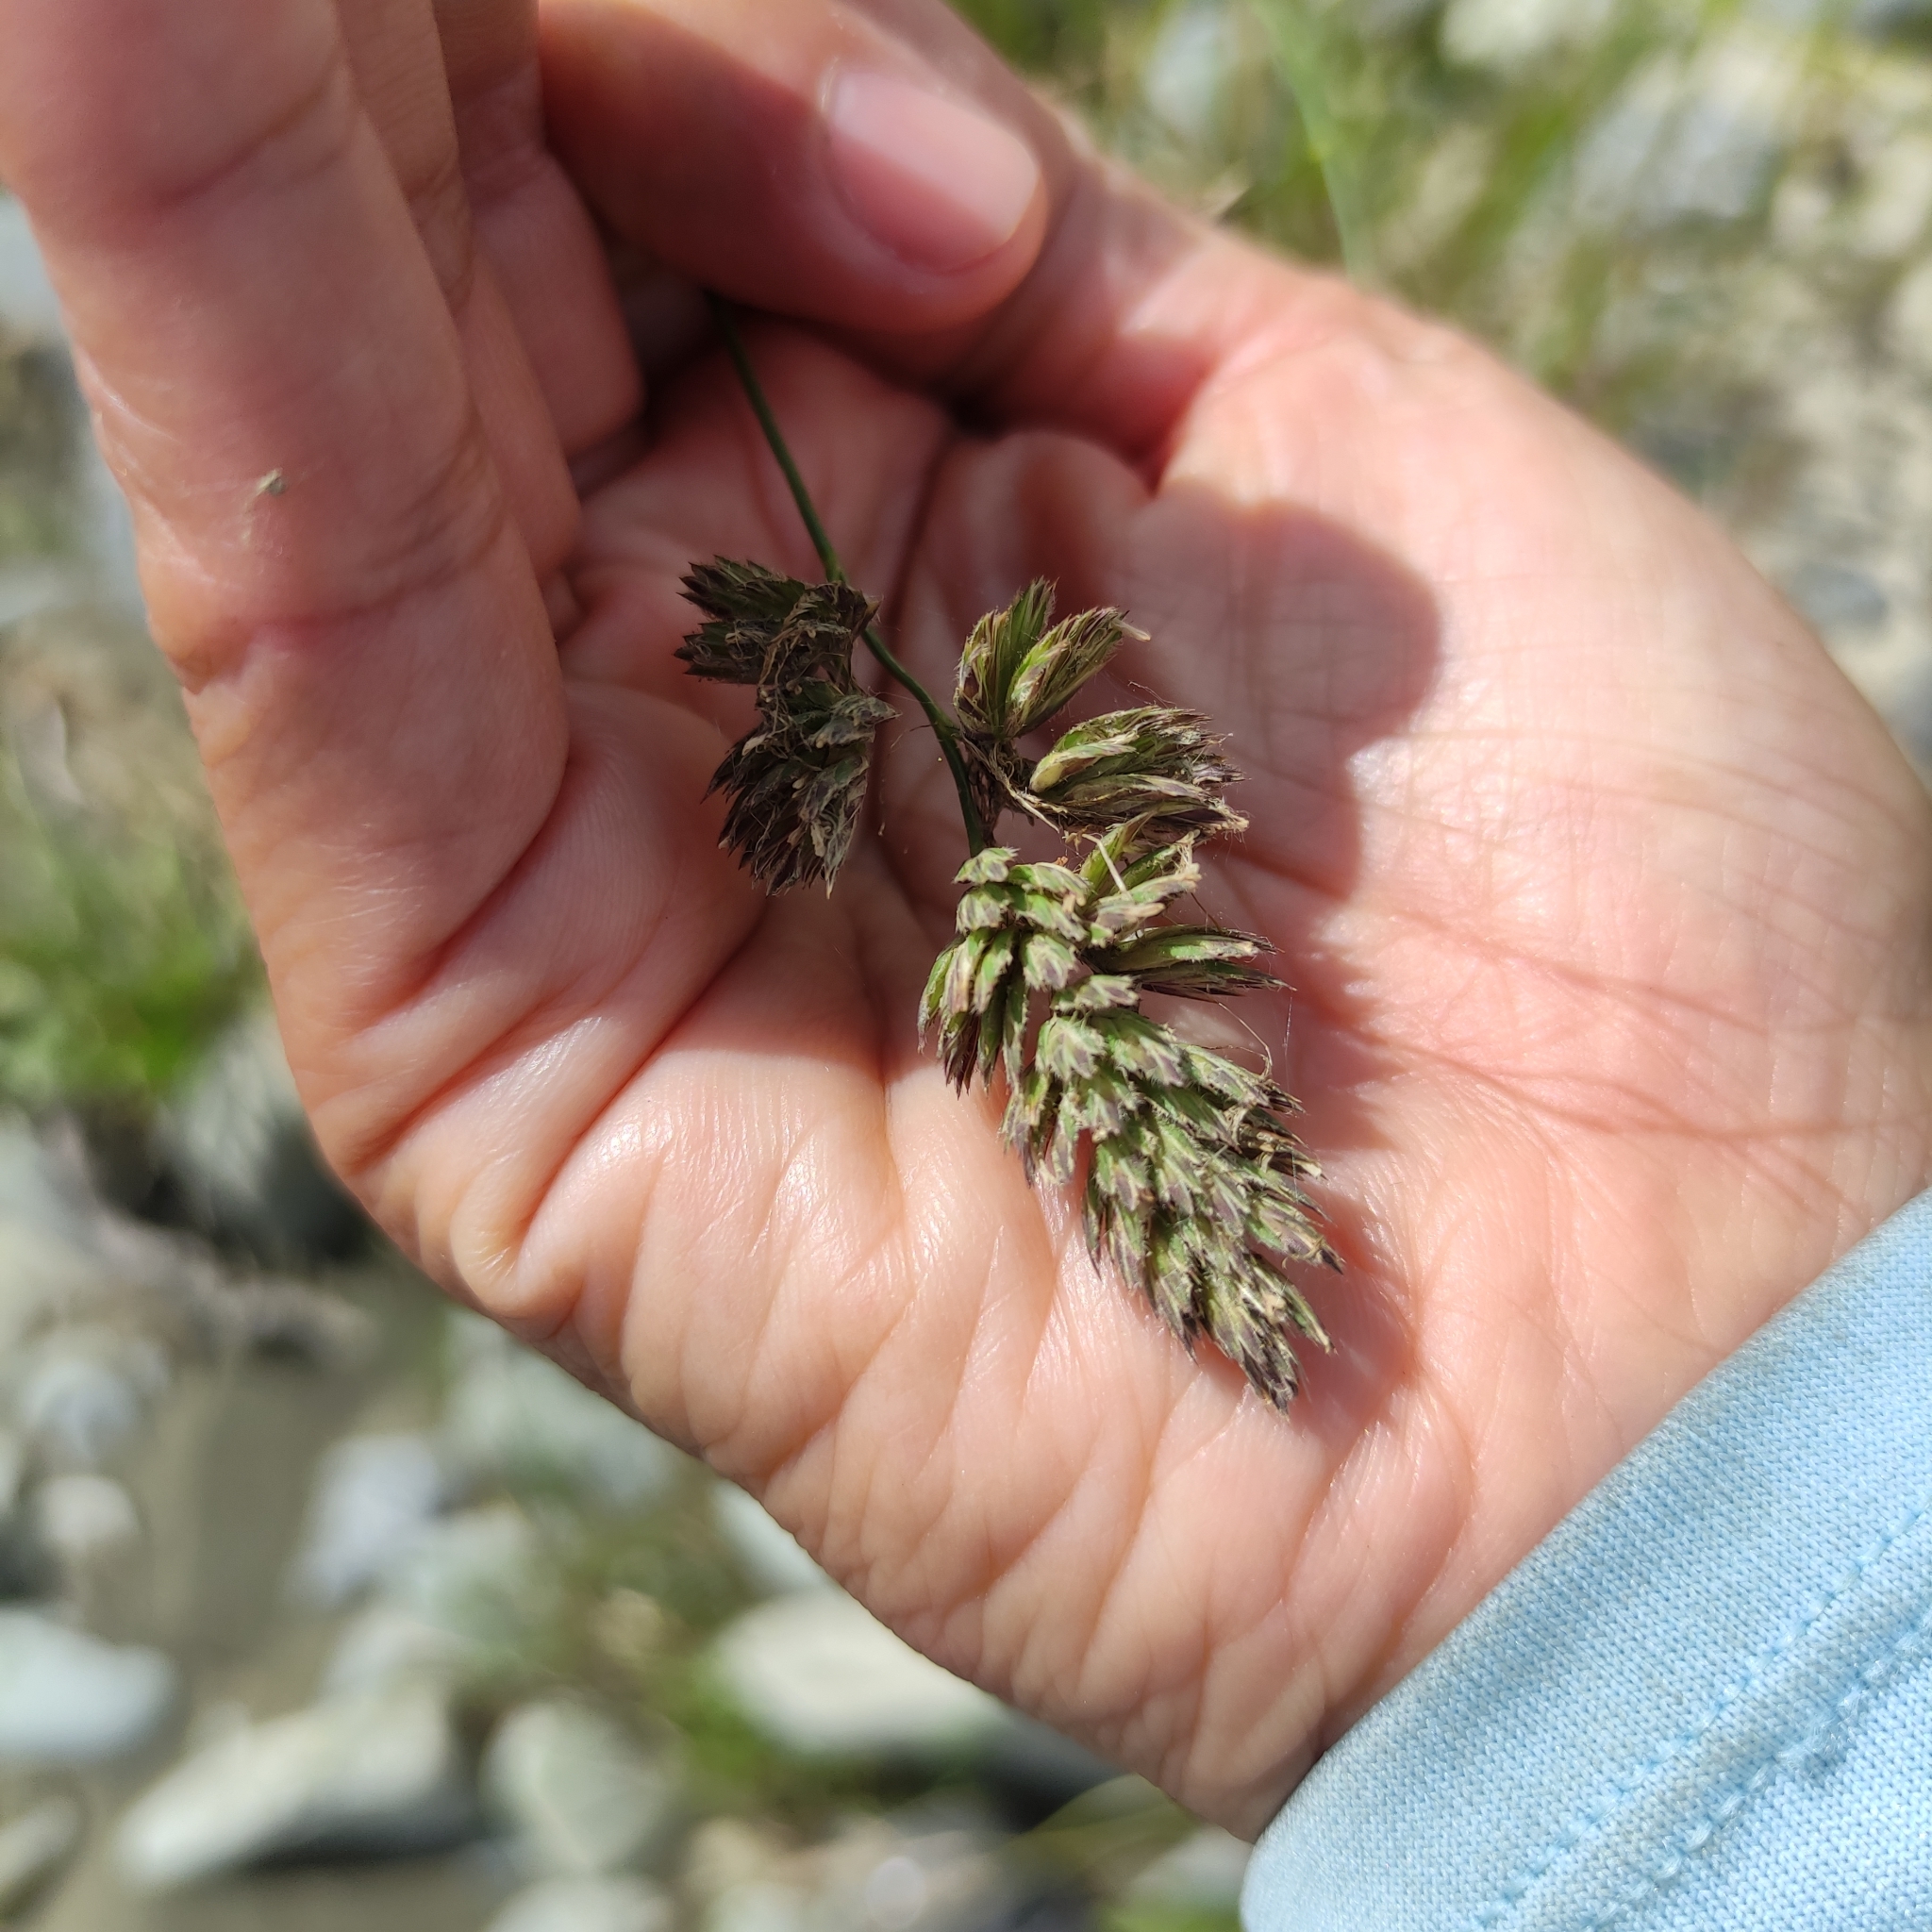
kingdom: Plantae
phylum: Tracheophyta
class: Liliopsida
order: Poales
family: Poaceae
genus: Dactylis
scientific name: Dactylis glomerata
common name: Orchardgrass
